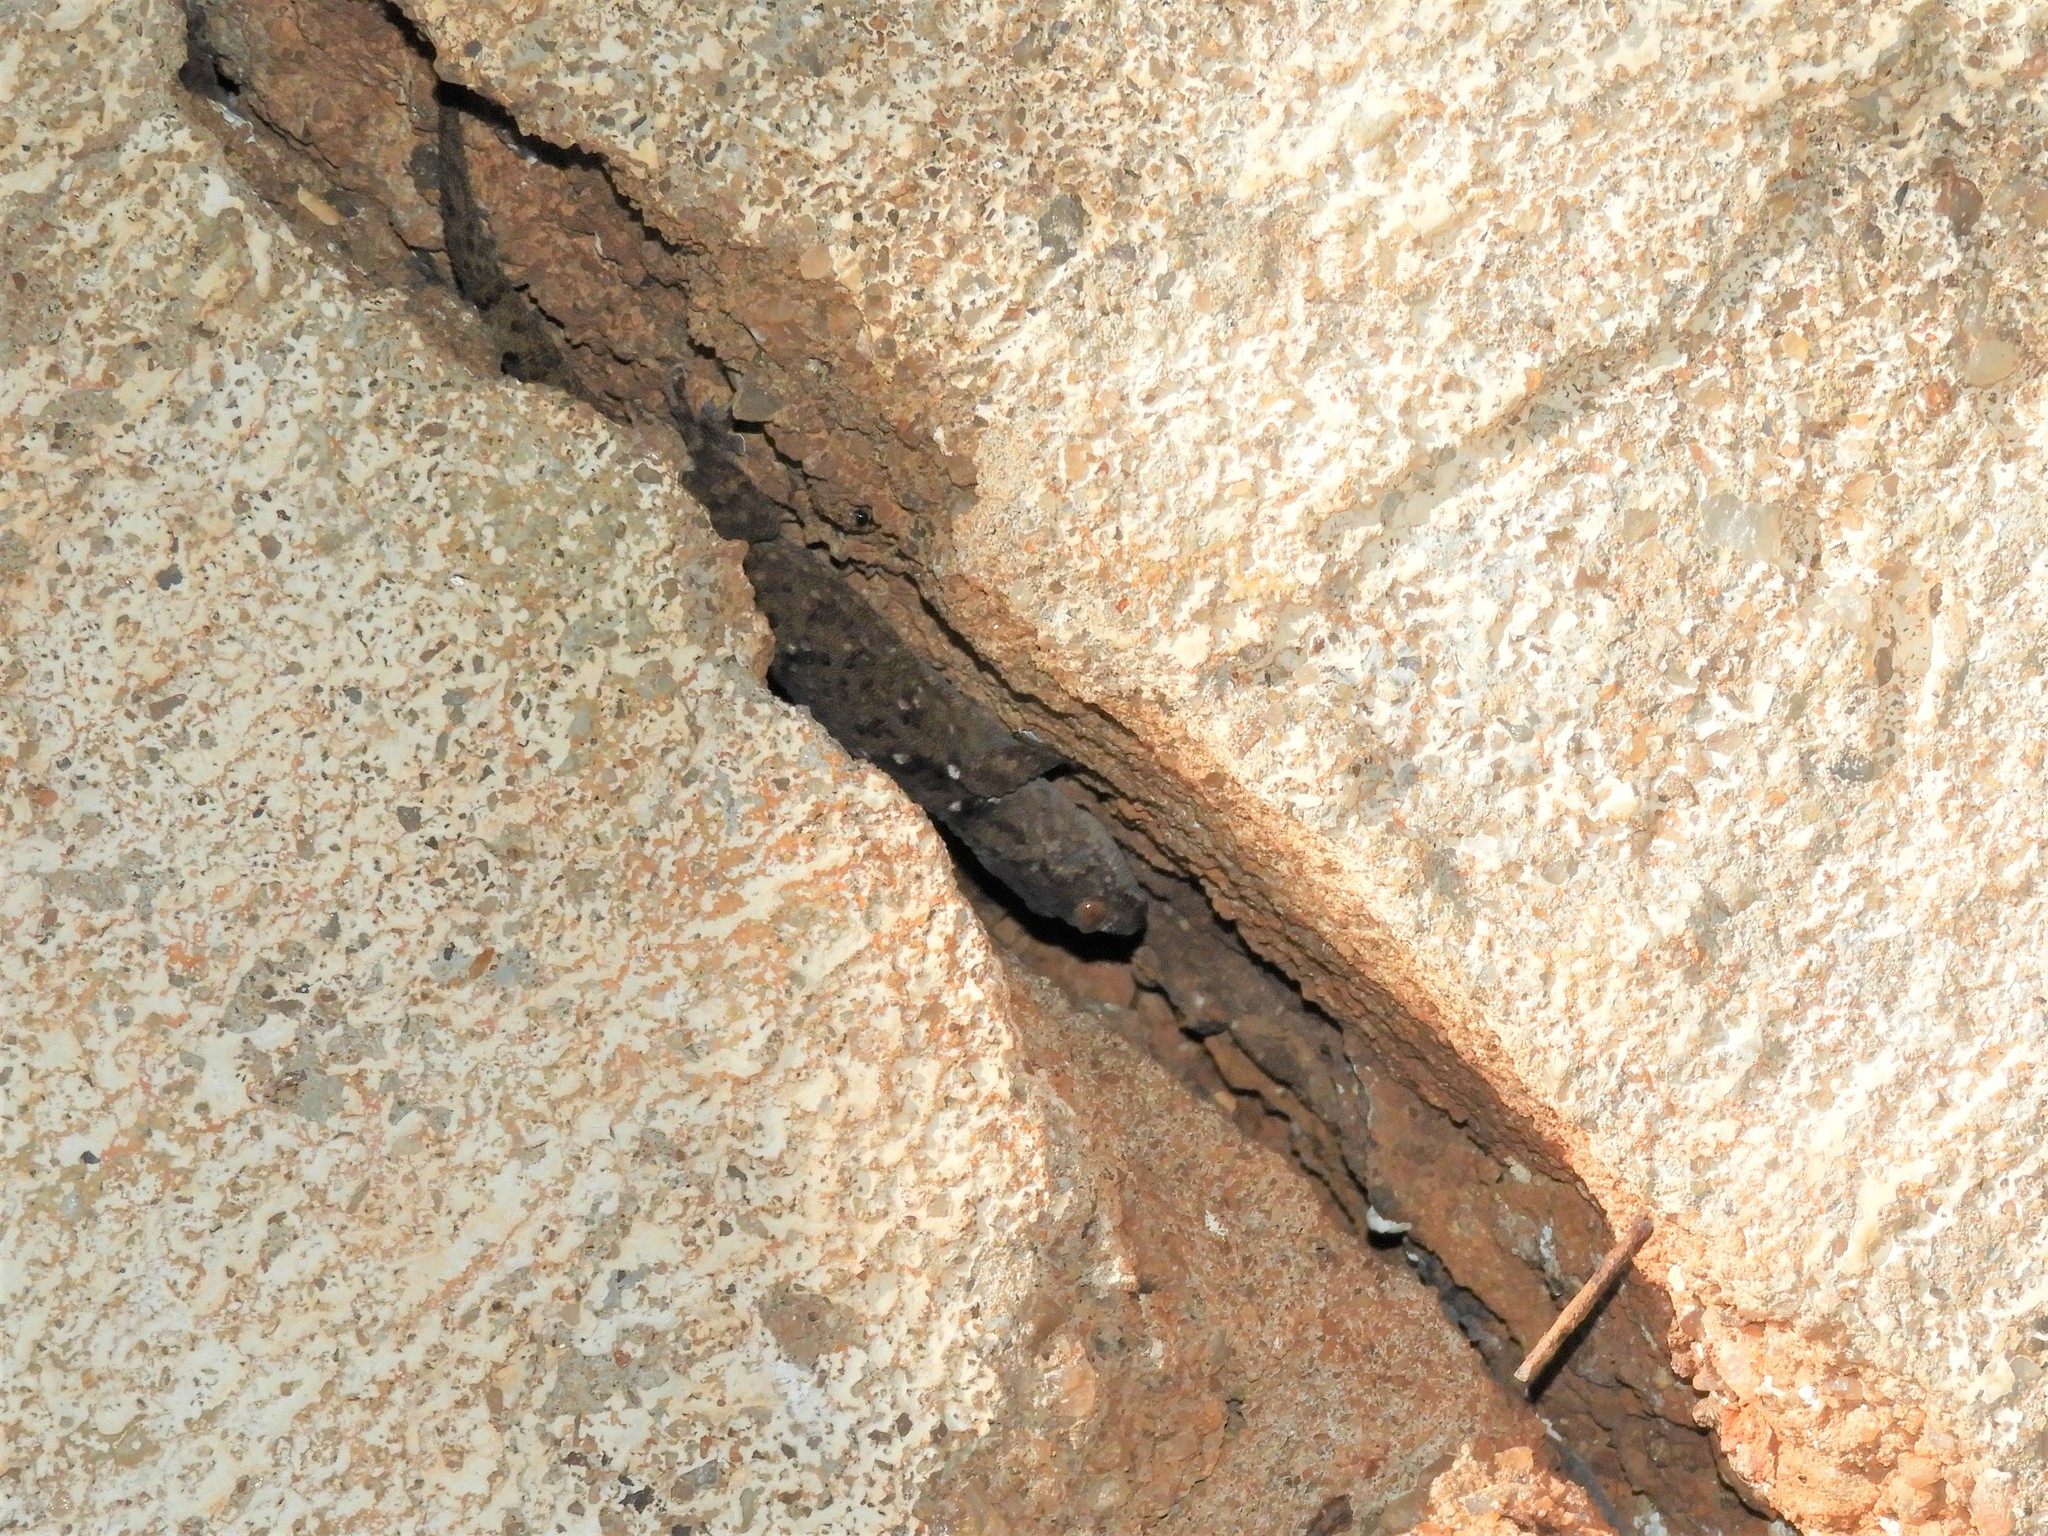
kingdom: Animalia
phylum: Chordata
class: Squamata
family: Gekkonidae
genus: Chondrodactylus
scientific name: Chondrodactylus bibronii
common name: Bibron's gecko
